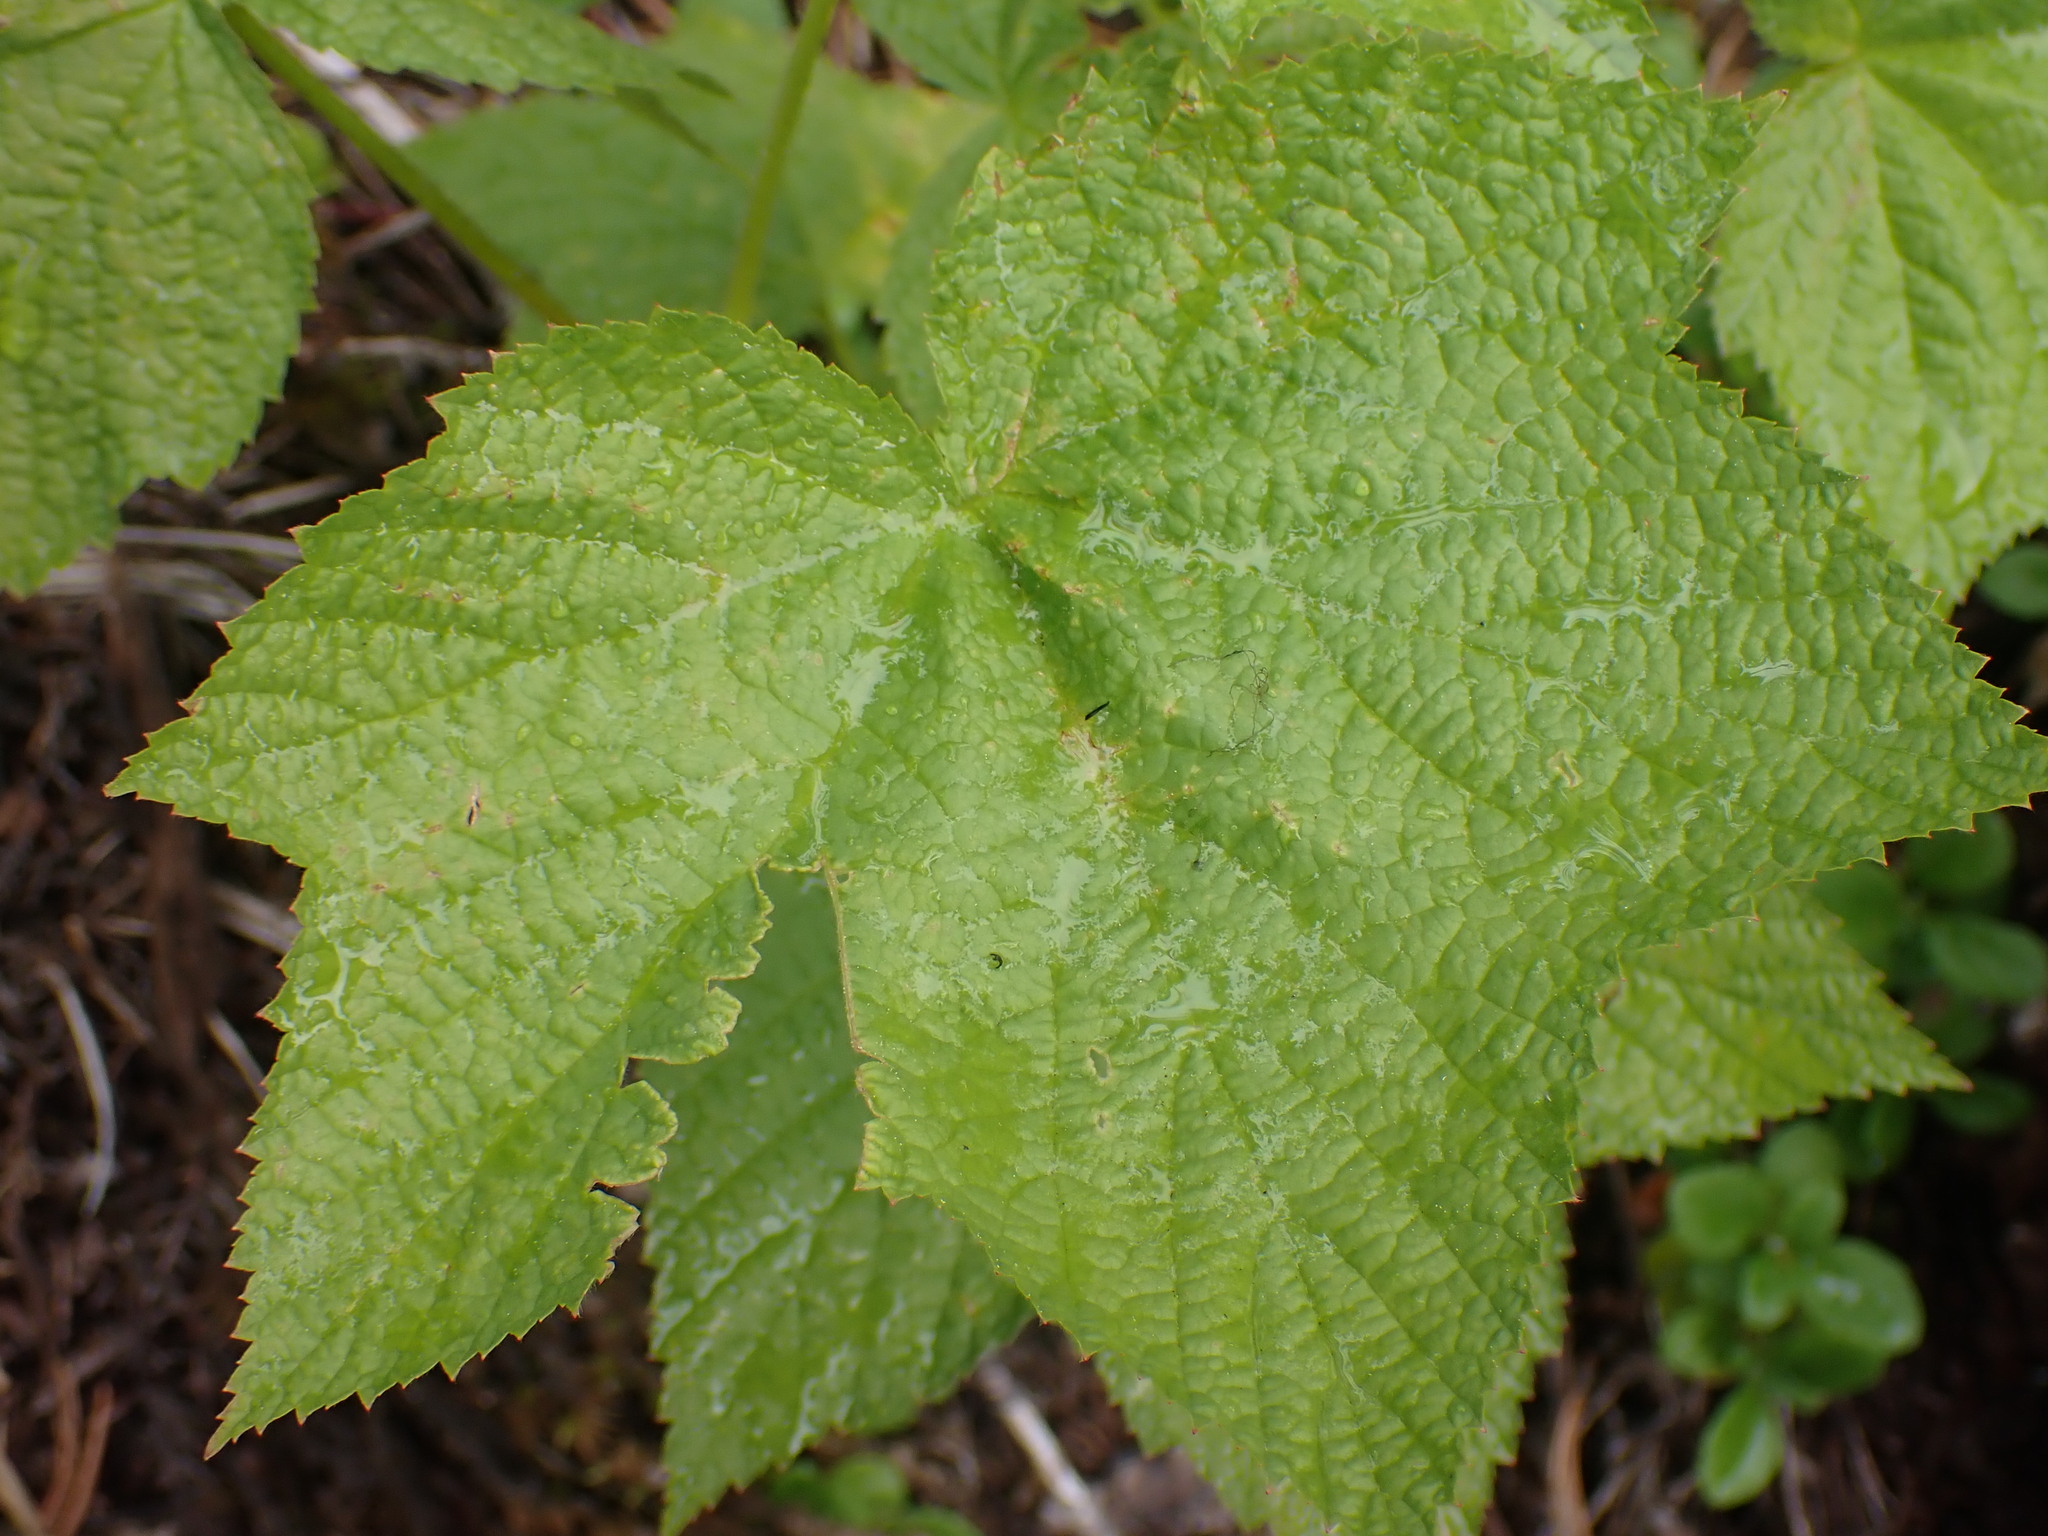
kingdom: Plantae
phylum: Tracheophyta
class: Magnoliopsida
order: Rosales
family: Rosaceae
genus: Rubus
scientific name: Rubus parviflorus
